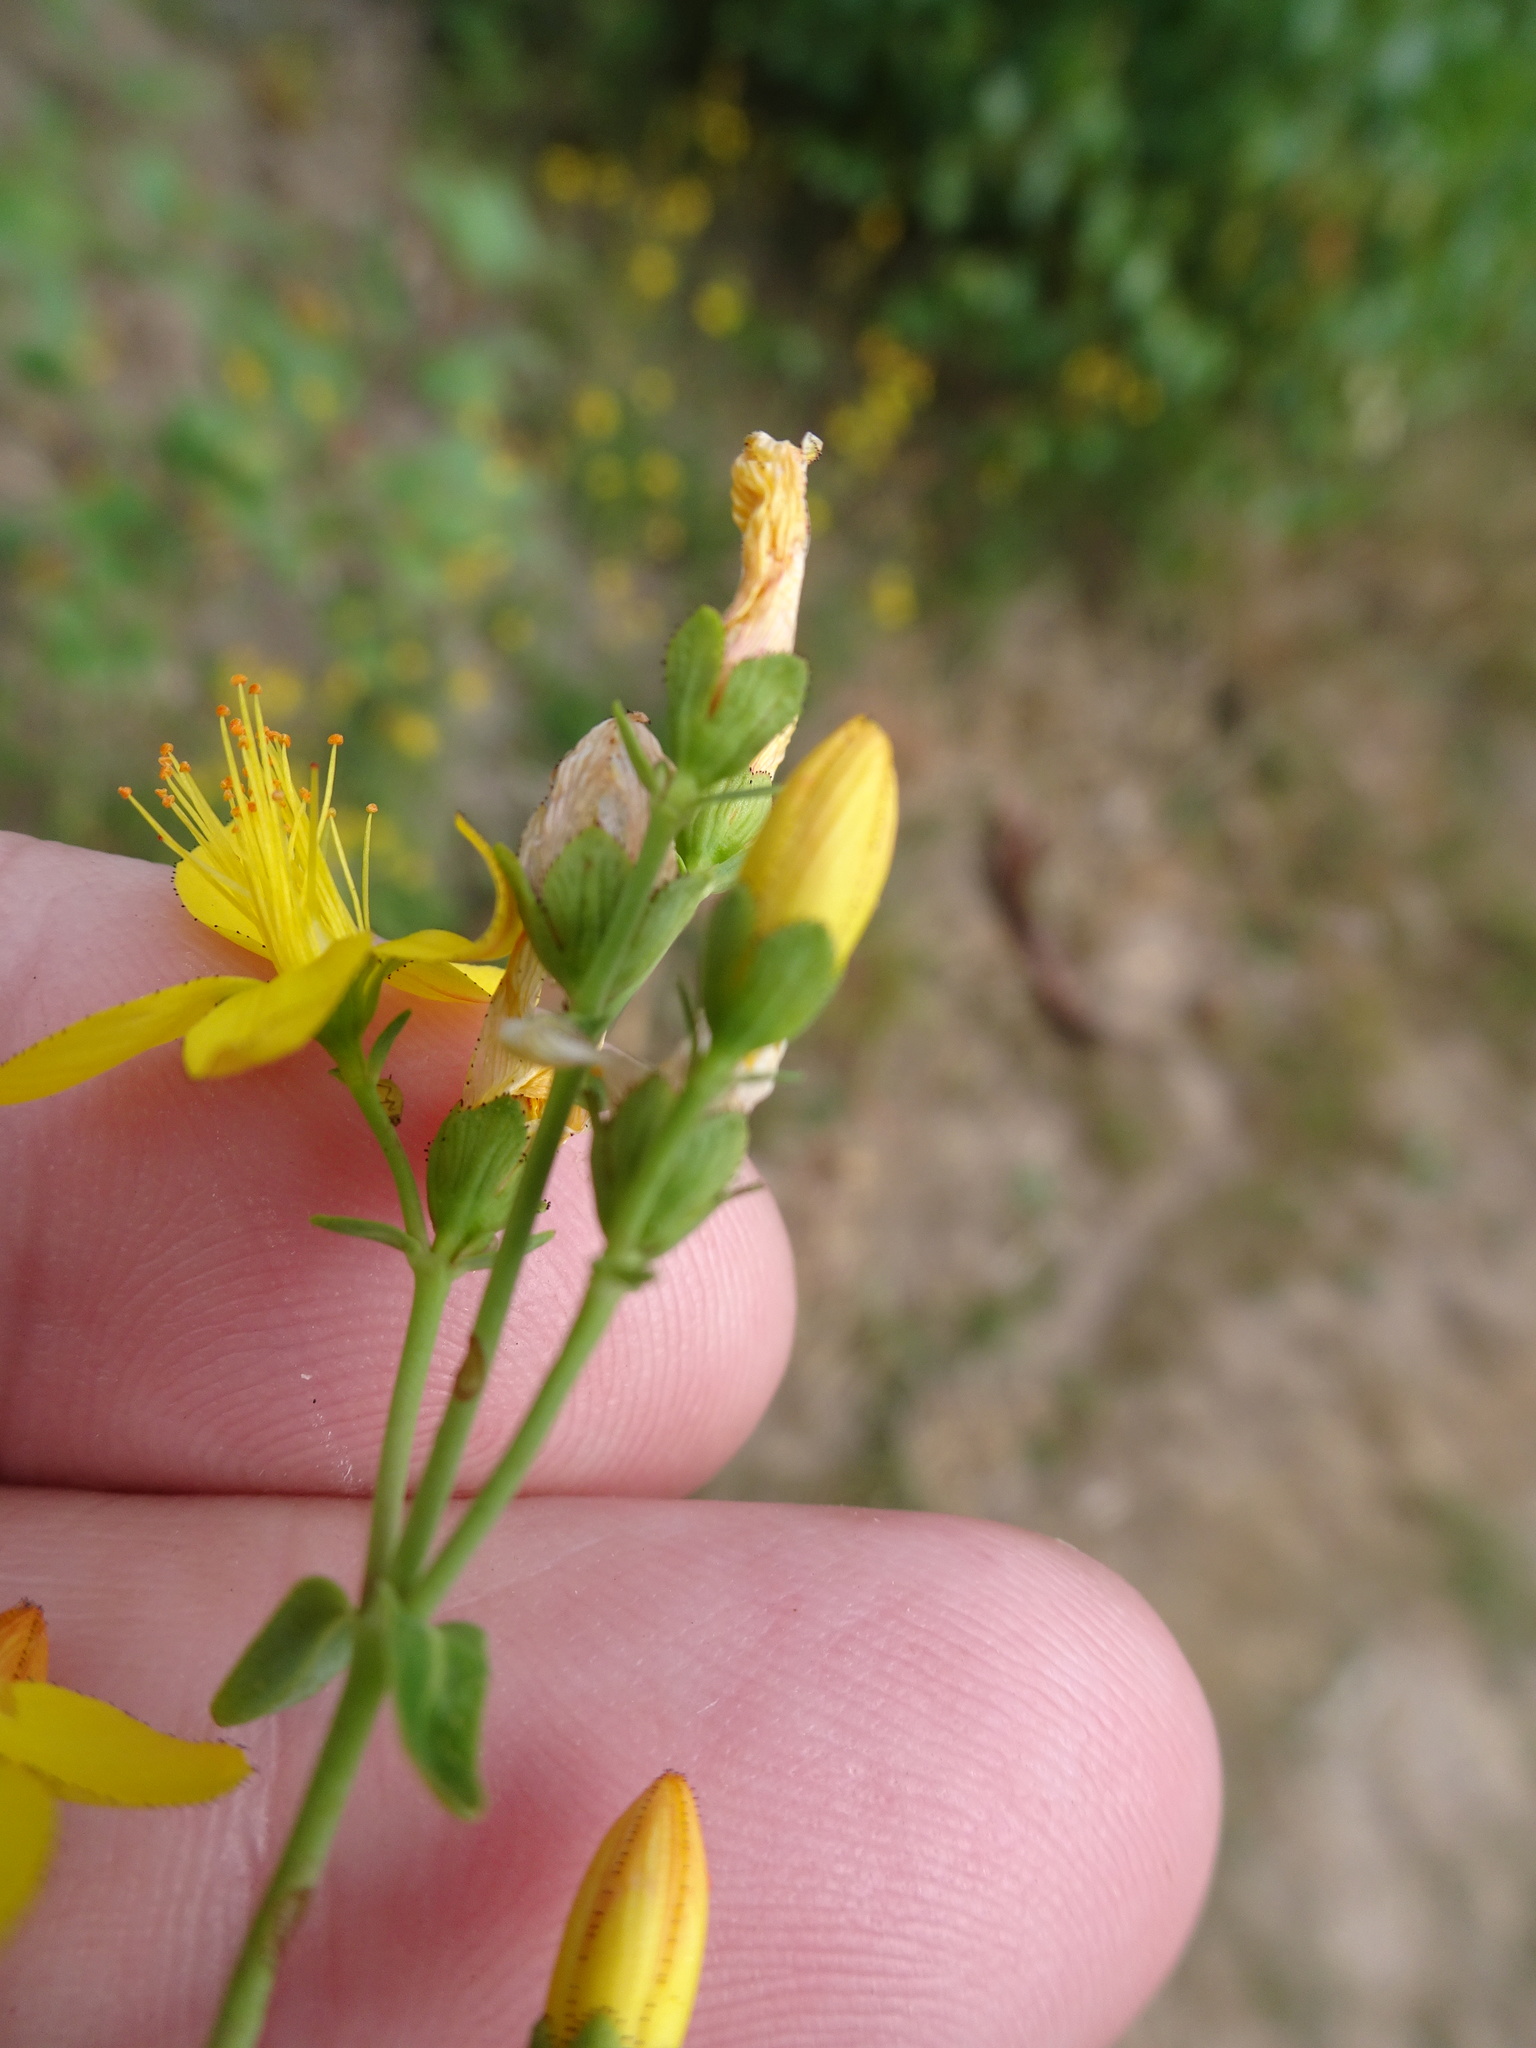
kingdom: Plantae
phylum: Tracheophyta
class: Magnoliopsida
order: Malpighiales
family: Hypericaceae
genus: Hypericum
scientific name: Hypericum pulchrum
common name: Slender st. john's-wort
